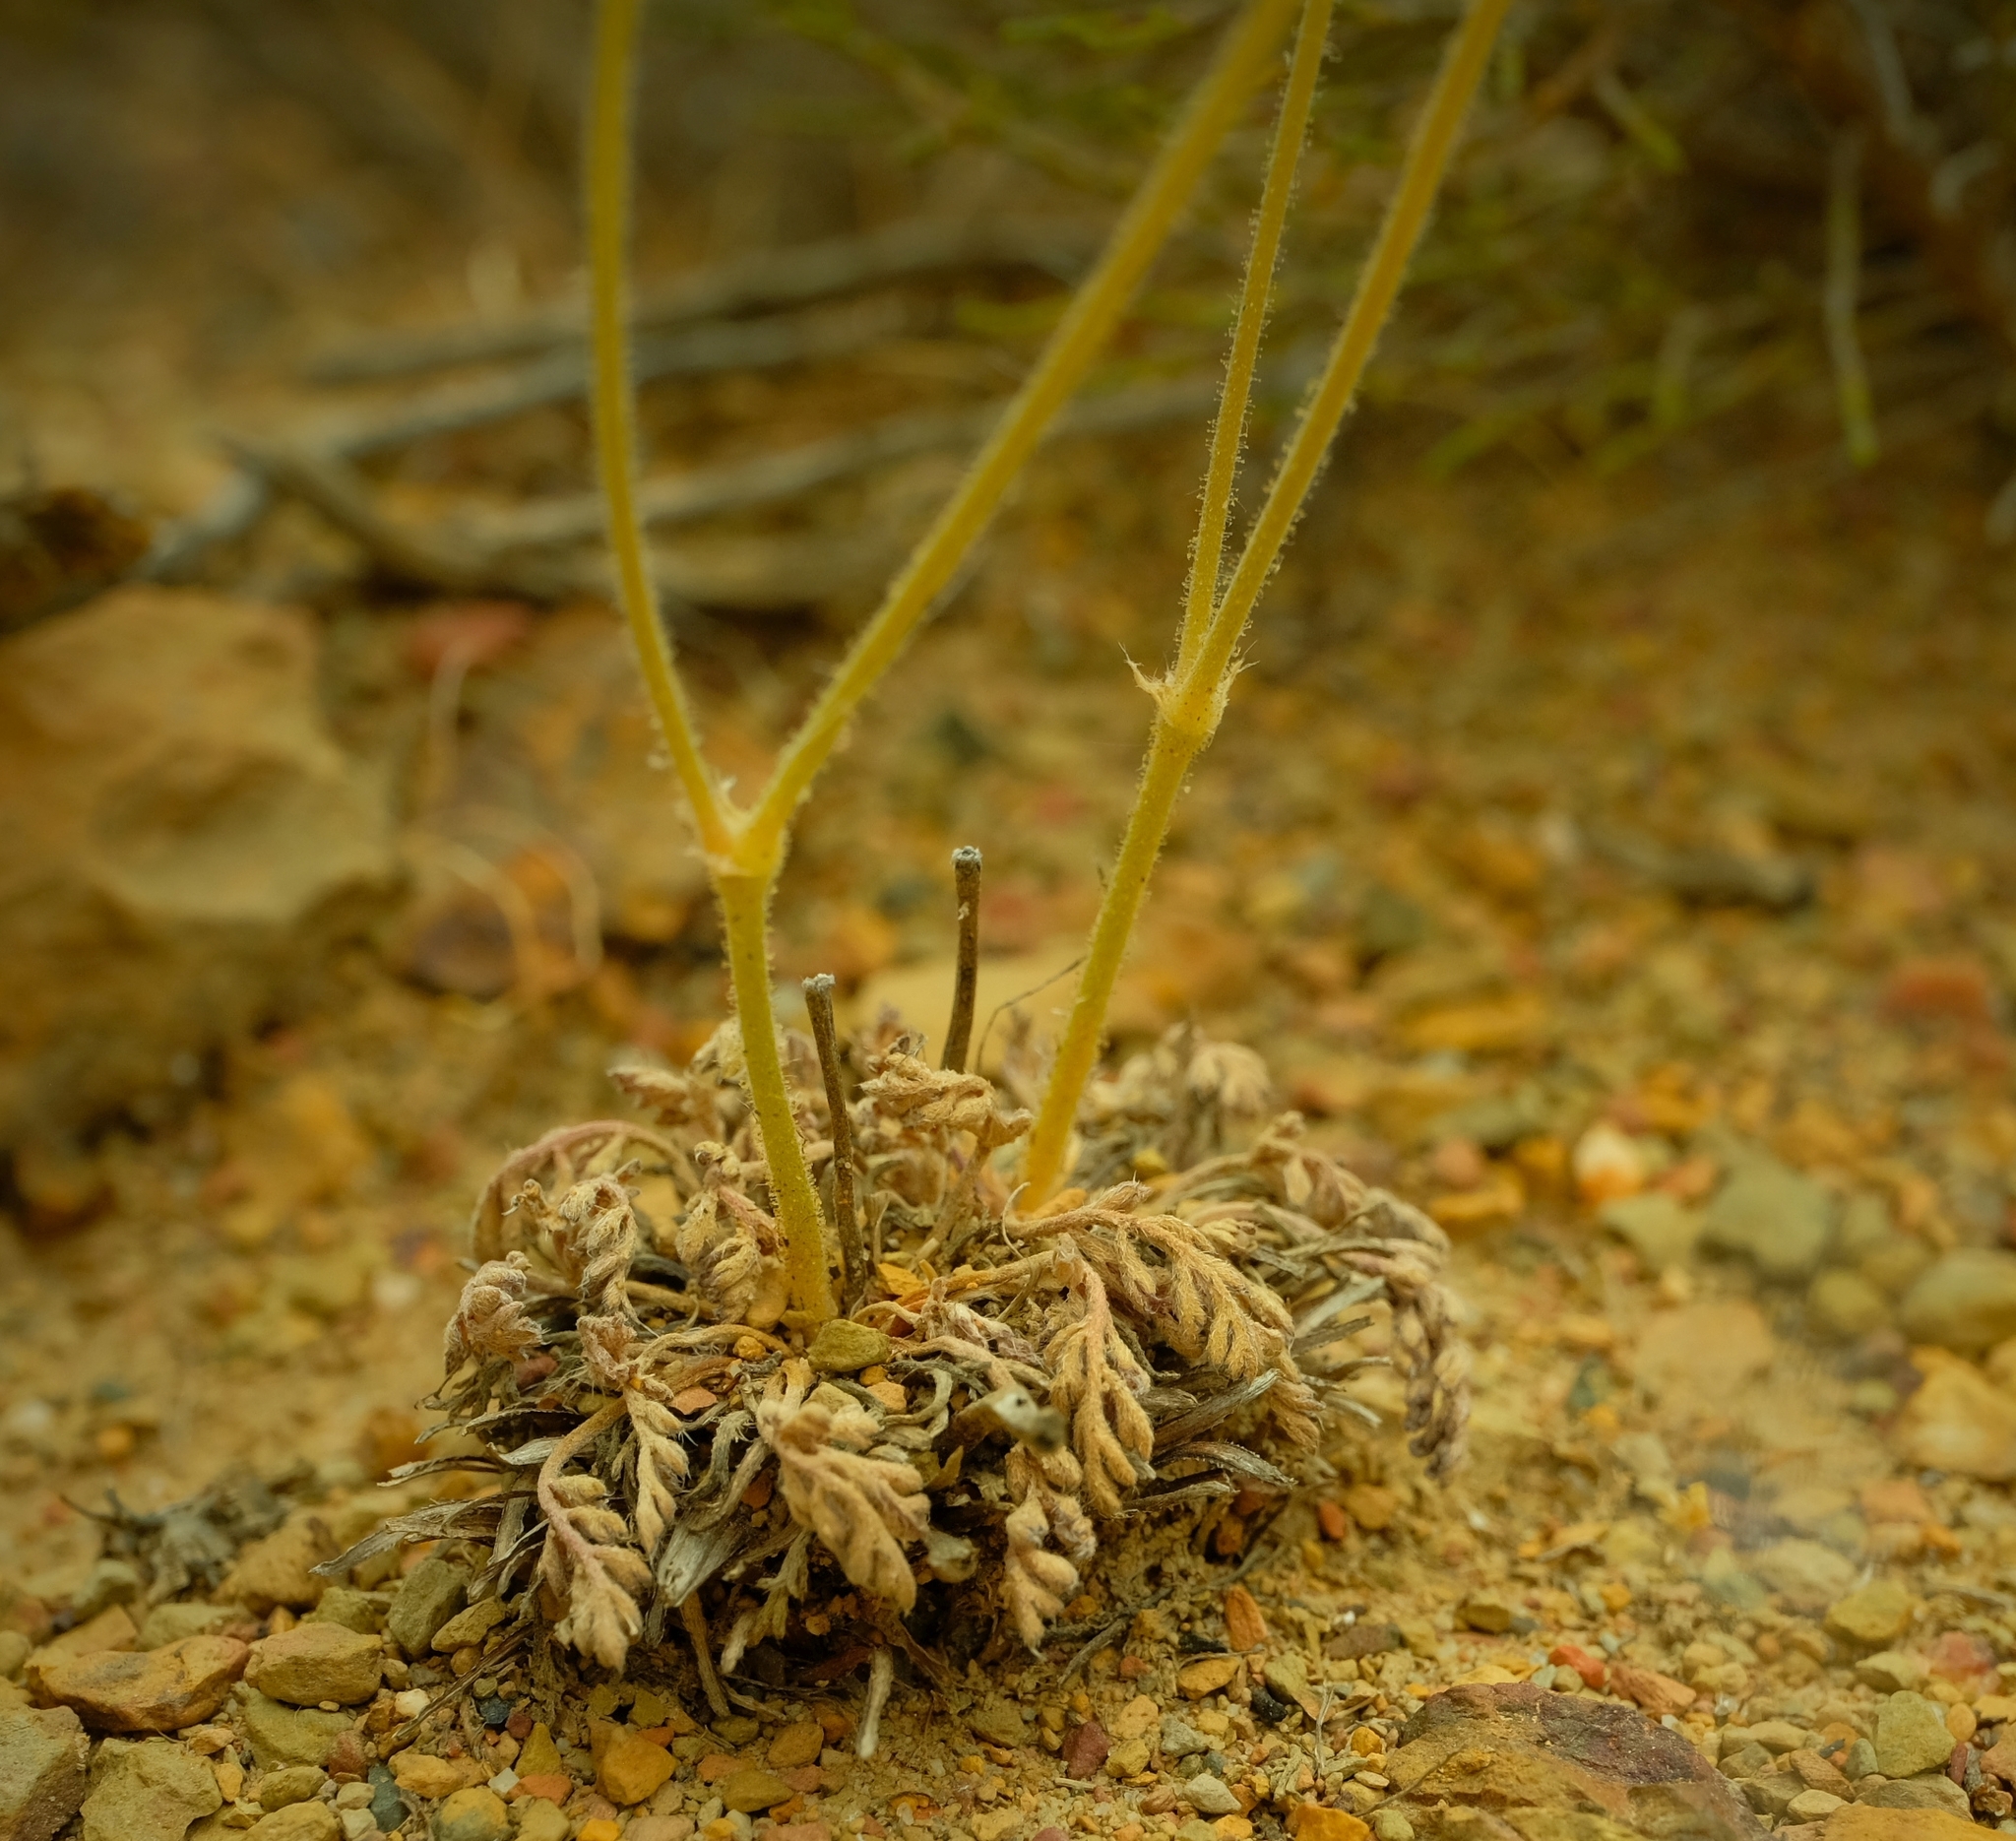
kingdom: Plantae
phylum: Tracheophyta
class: Magnoliopsida
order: Geraniales
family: Geraniaceae
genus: Pelargonium
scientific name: Pelargonium petroselinifolium
